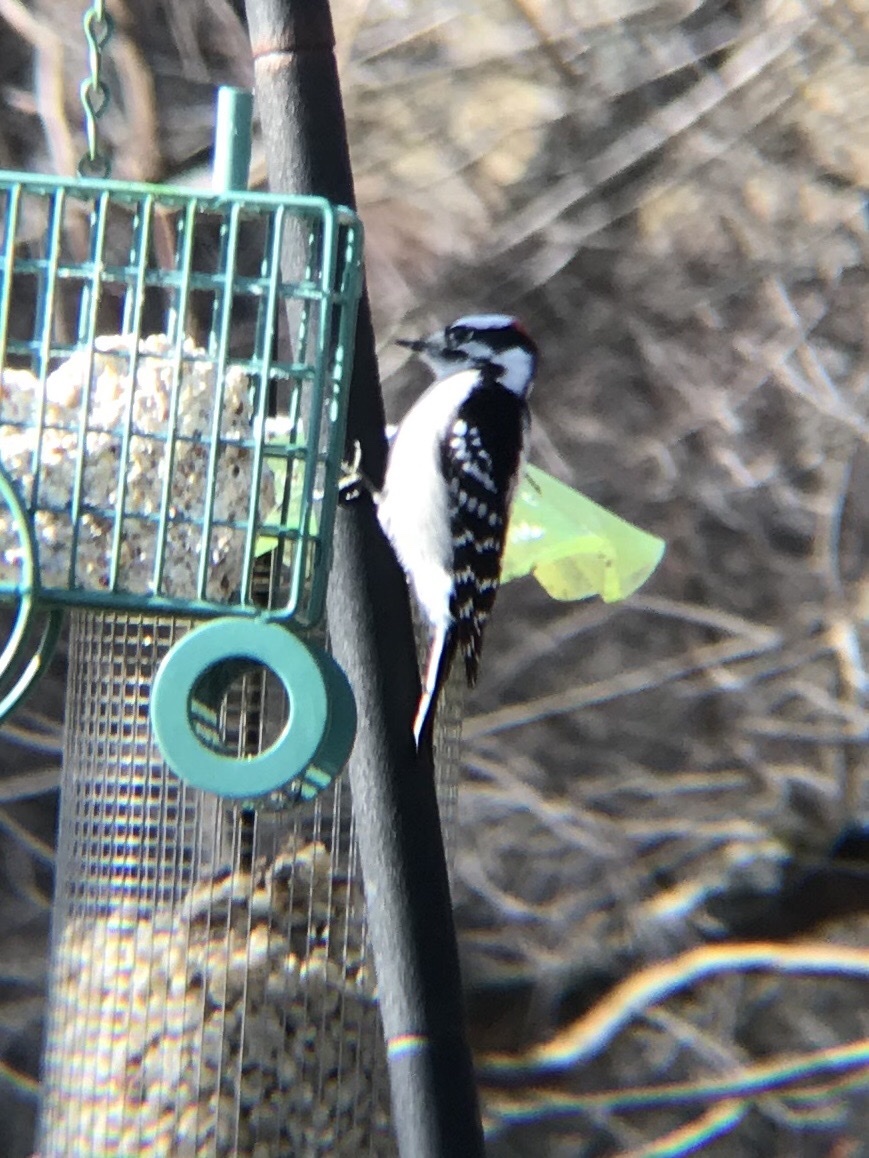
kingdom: Animalia
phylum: Chordata
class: Aves
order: Piciformes
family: Picidae
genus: Dryobates
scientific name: Dryobates pubescens
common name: Downy woodpecker
